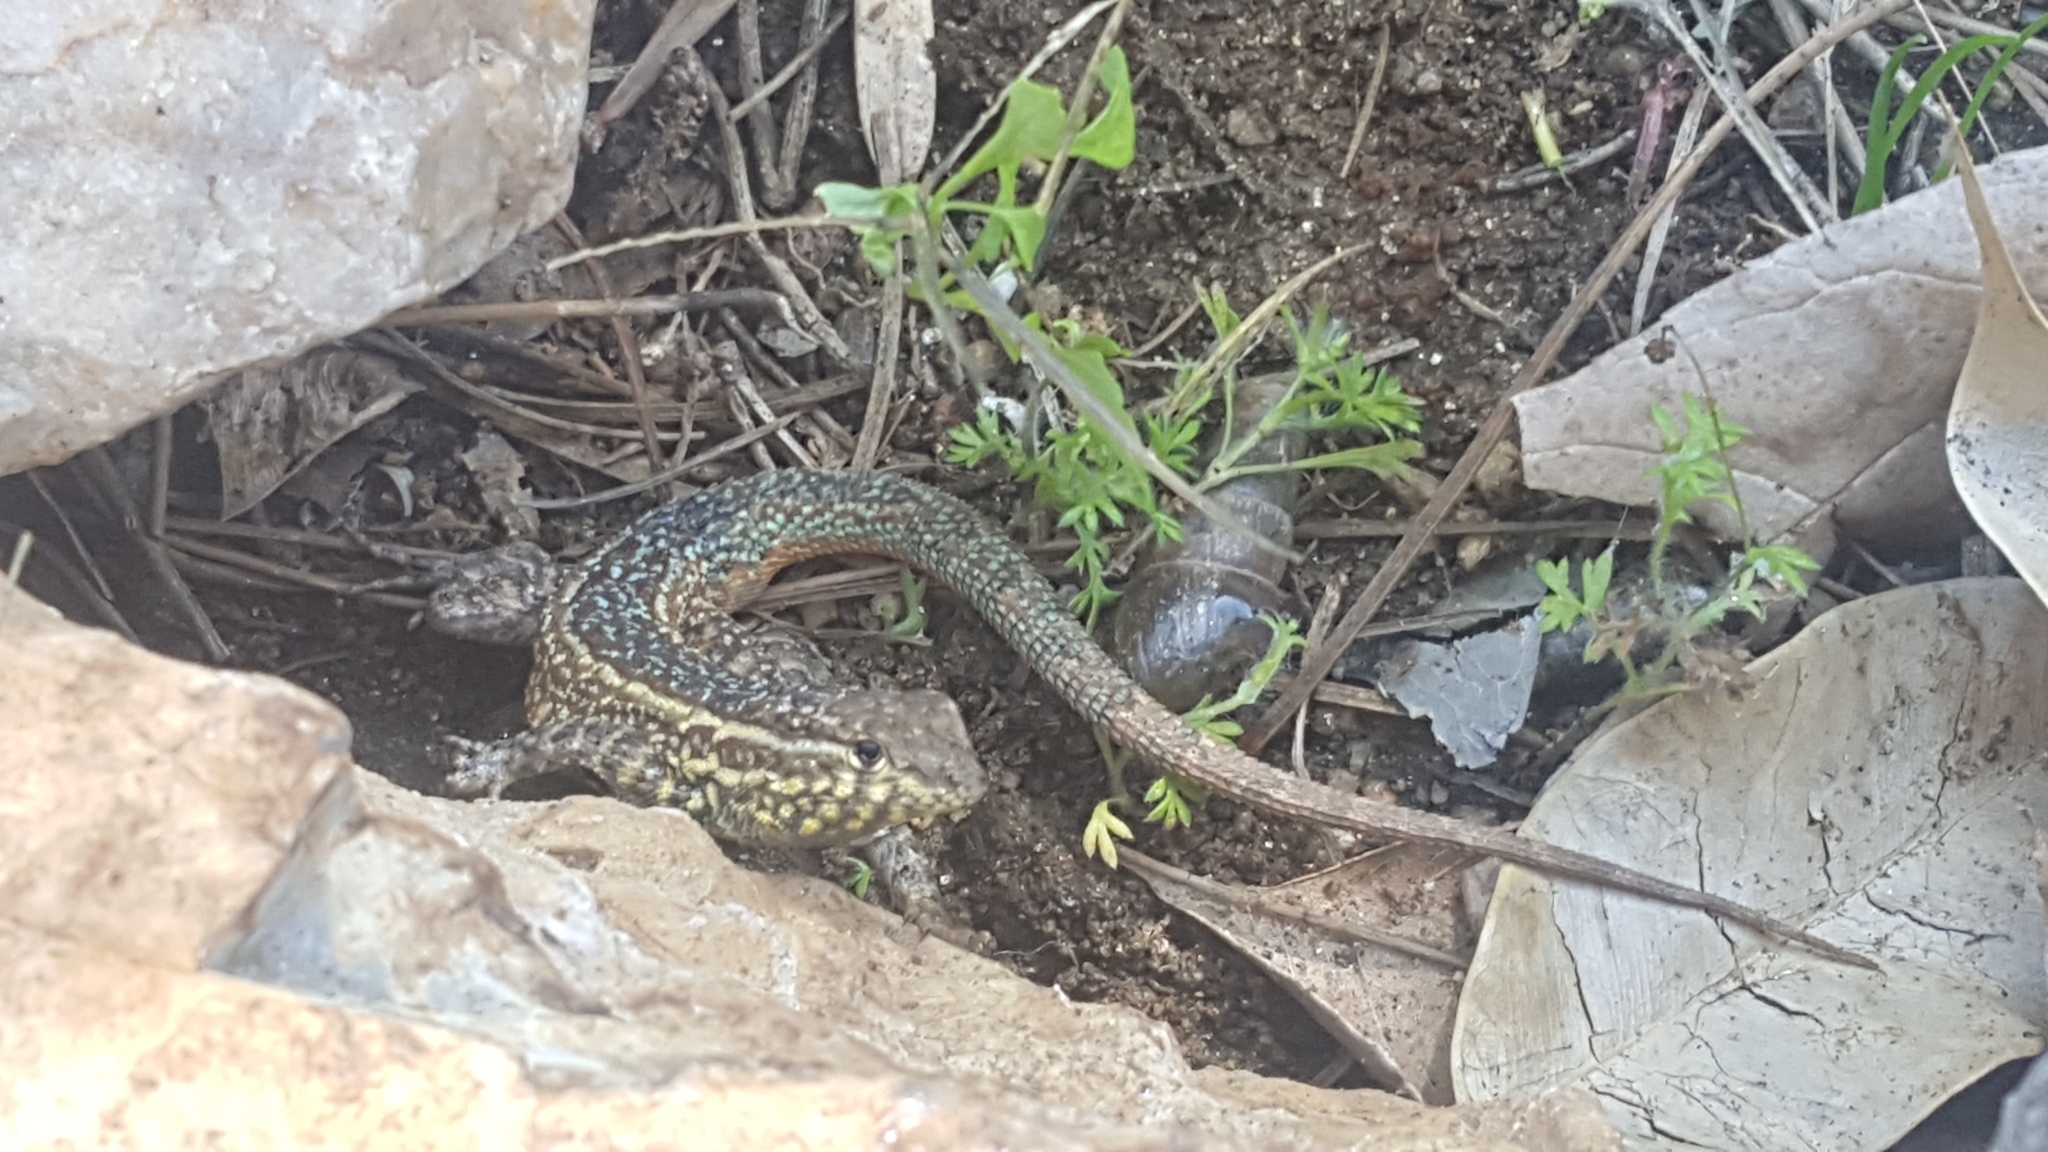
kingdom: Animalia
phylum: Chordata
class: Squamata
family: Phrynosomatidae
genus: Uta
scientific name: Uta stansburiana
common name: Side-blotched lizard
